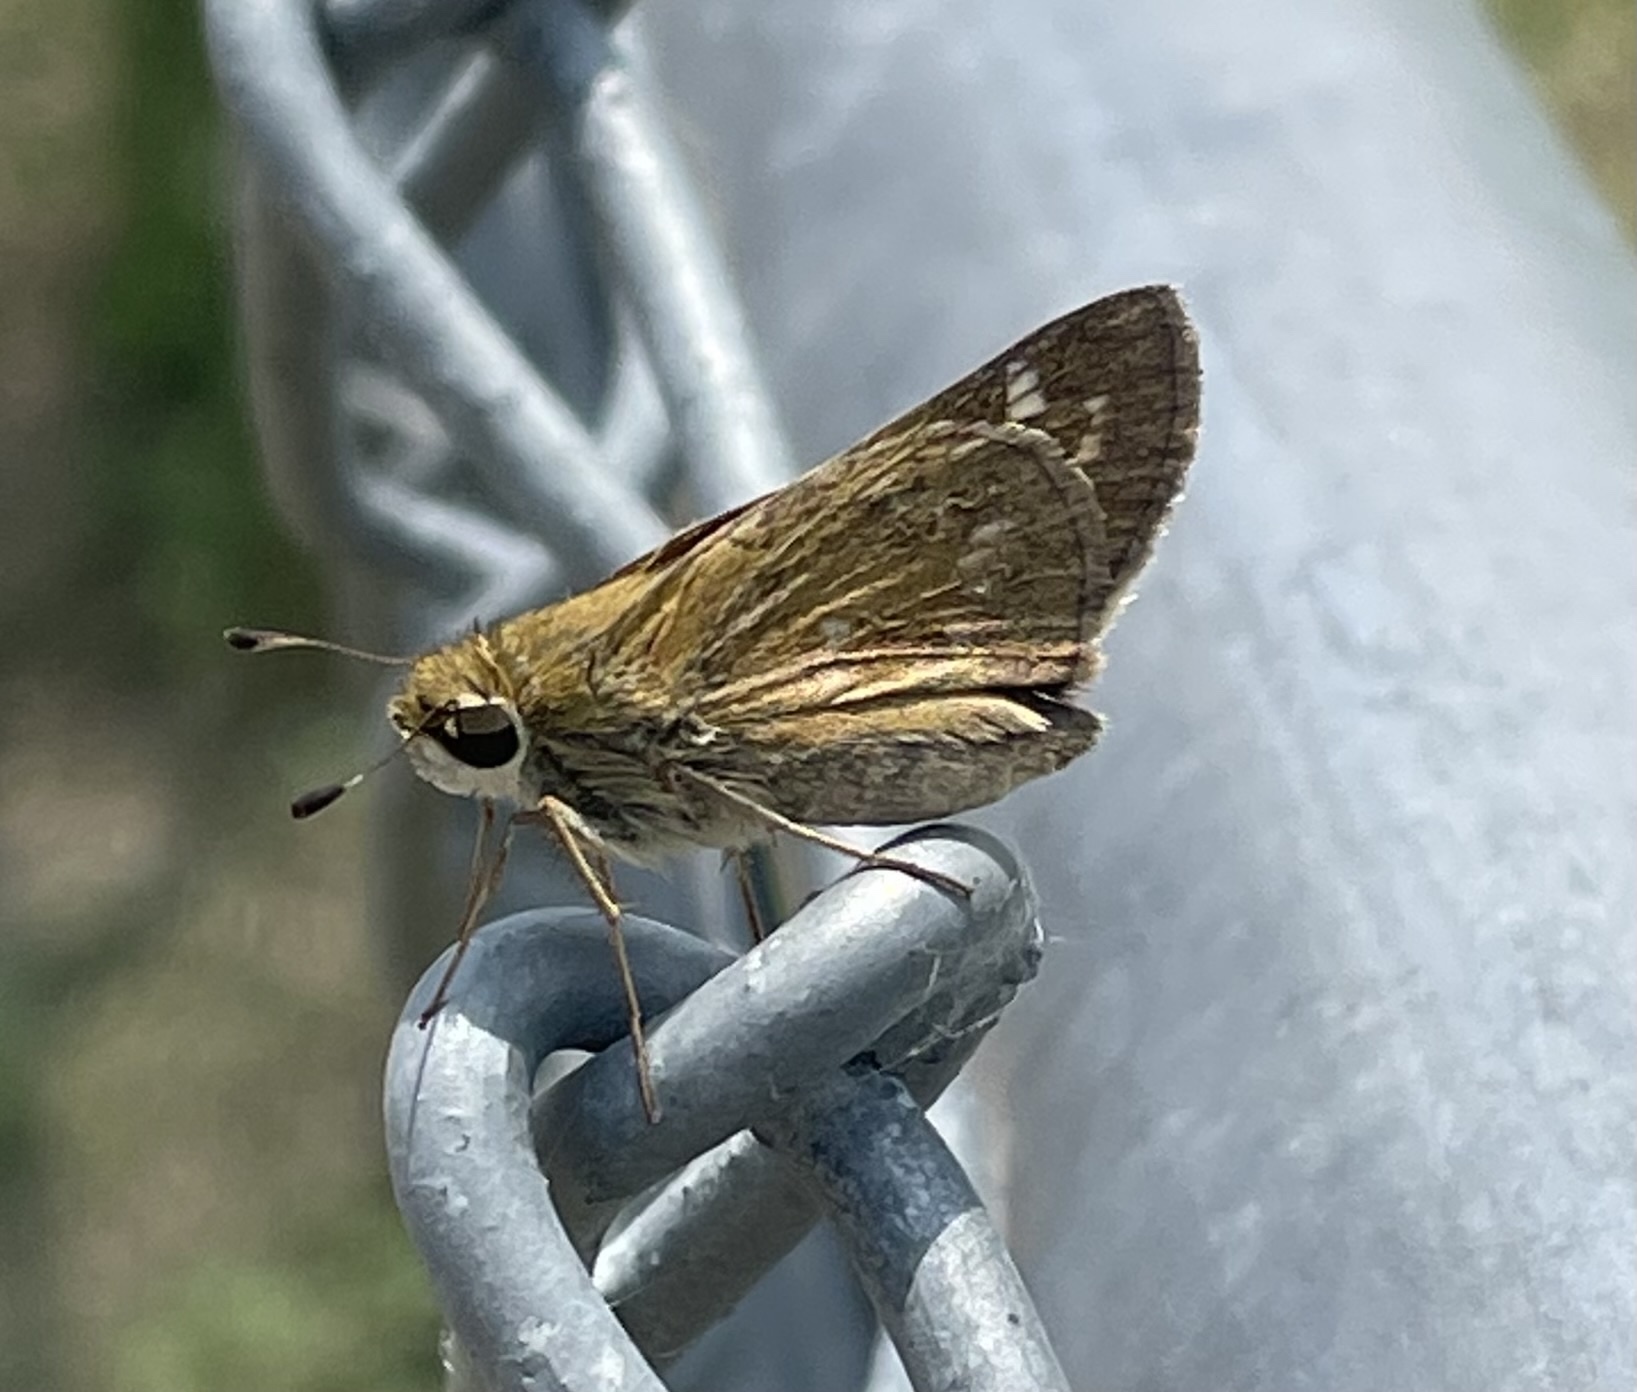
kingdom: Animalia
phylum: Arthropoda
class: Insecta
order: Lepidoptera
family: Hesperiidae
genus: Atalopedes
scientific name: Atalopedes
